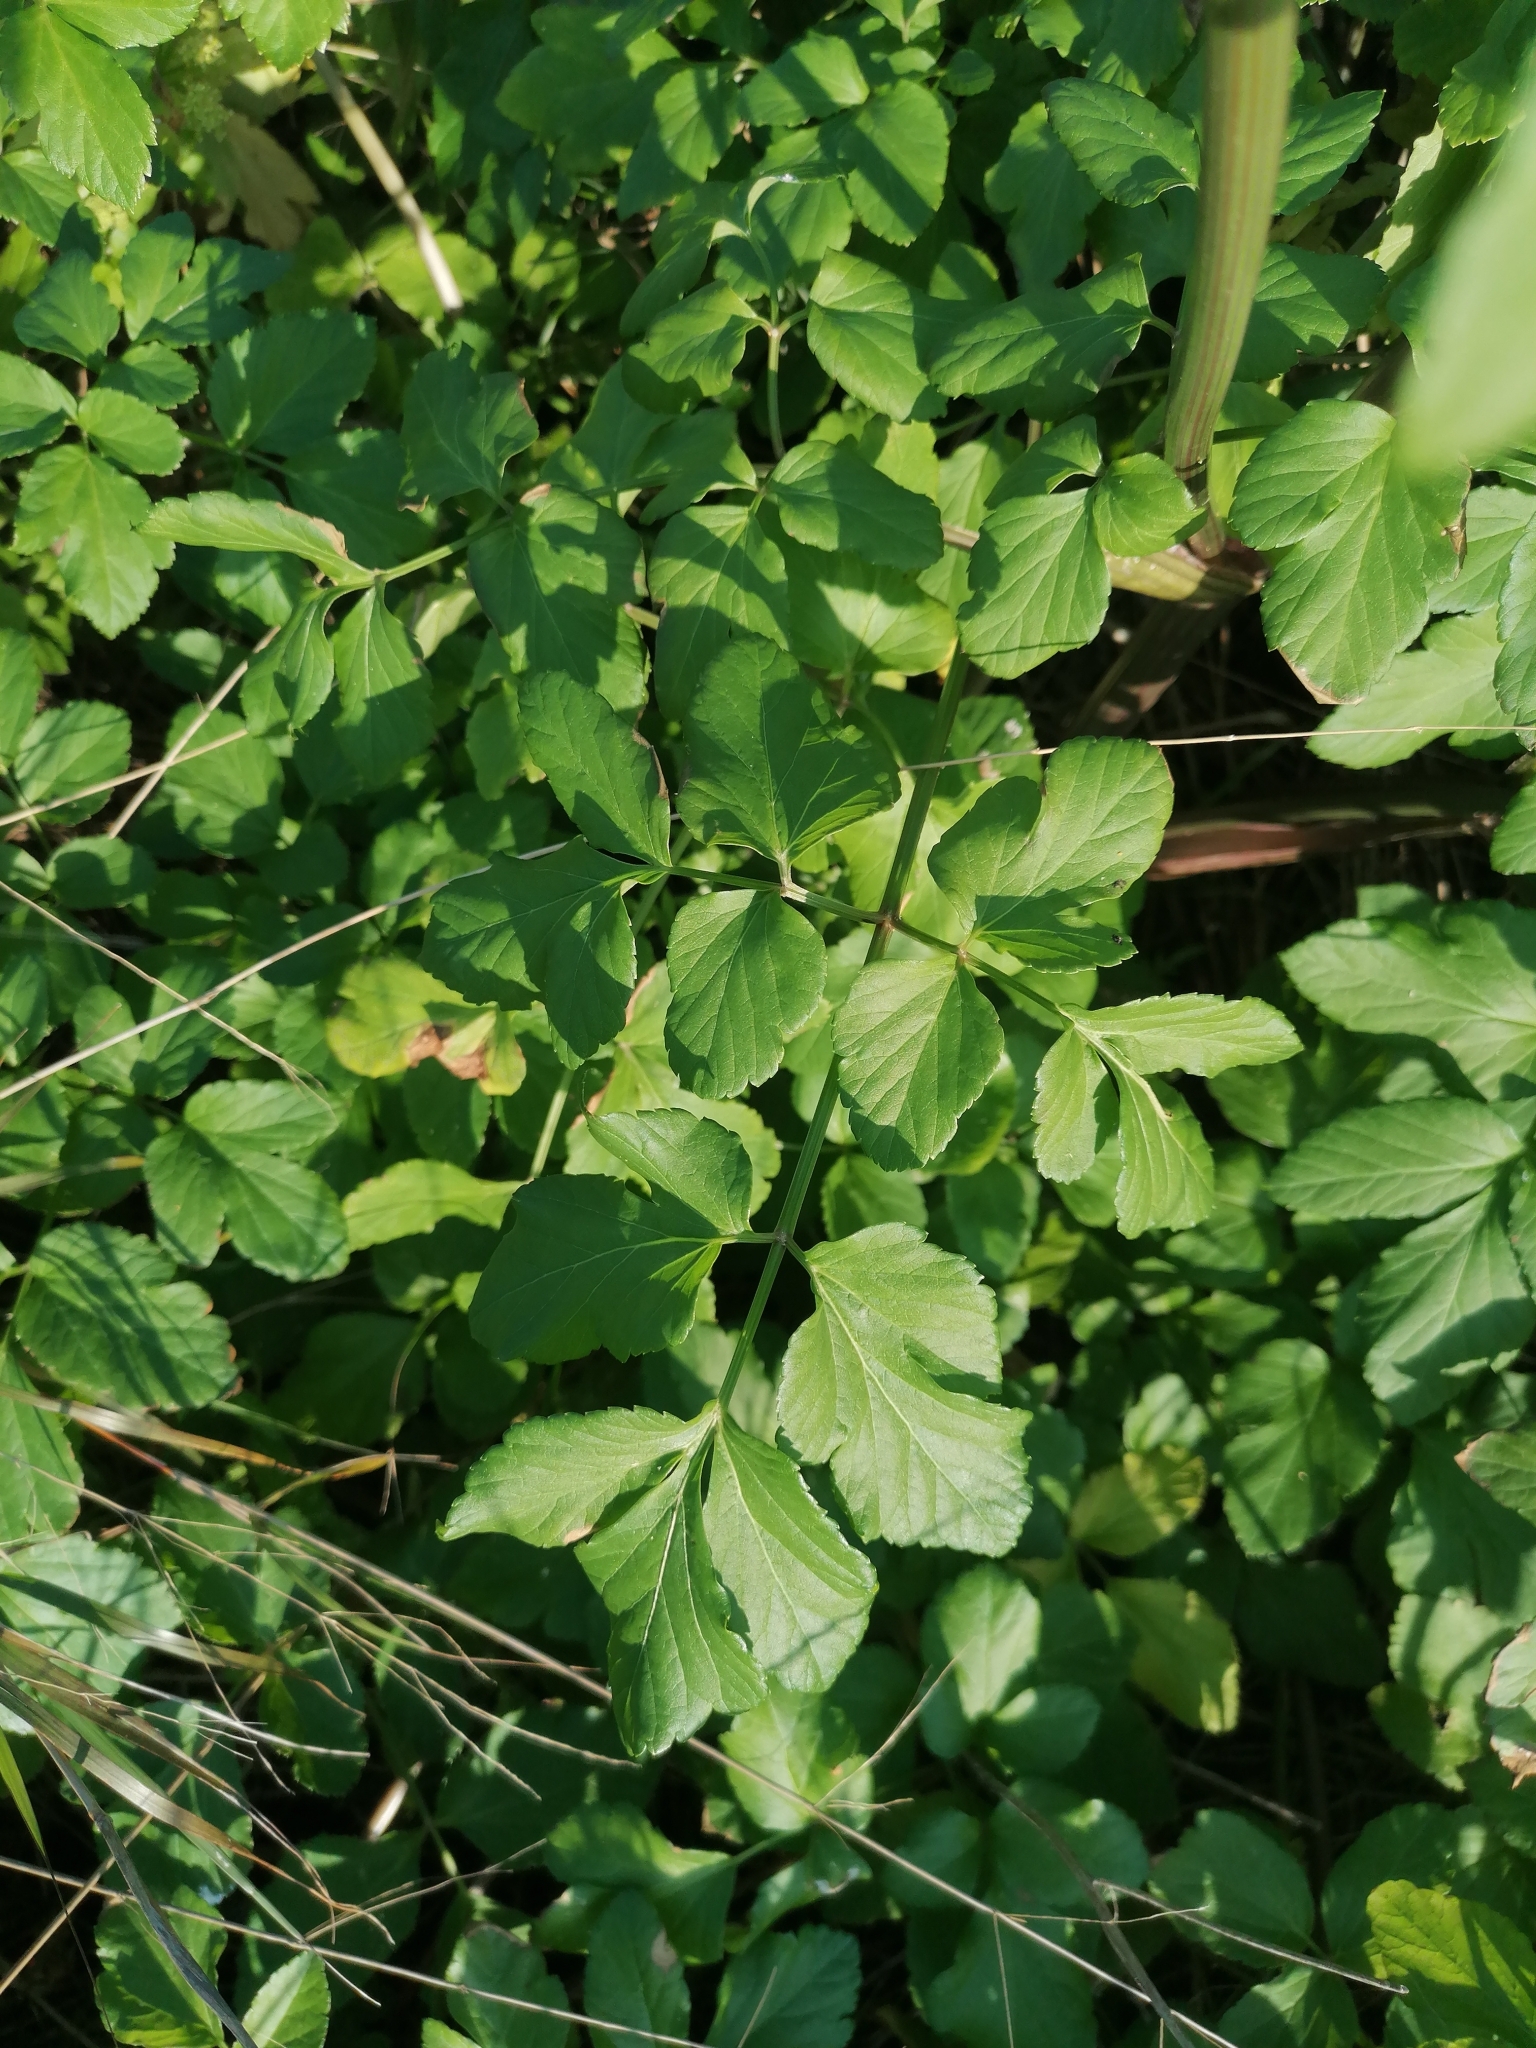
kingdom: Plantae
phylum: Tracheophyta
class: Magnoliopsida
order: Apiales
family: Apiaceae
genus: Smyrnium
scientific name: Smyrnium olusatrum
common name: Alexanders
